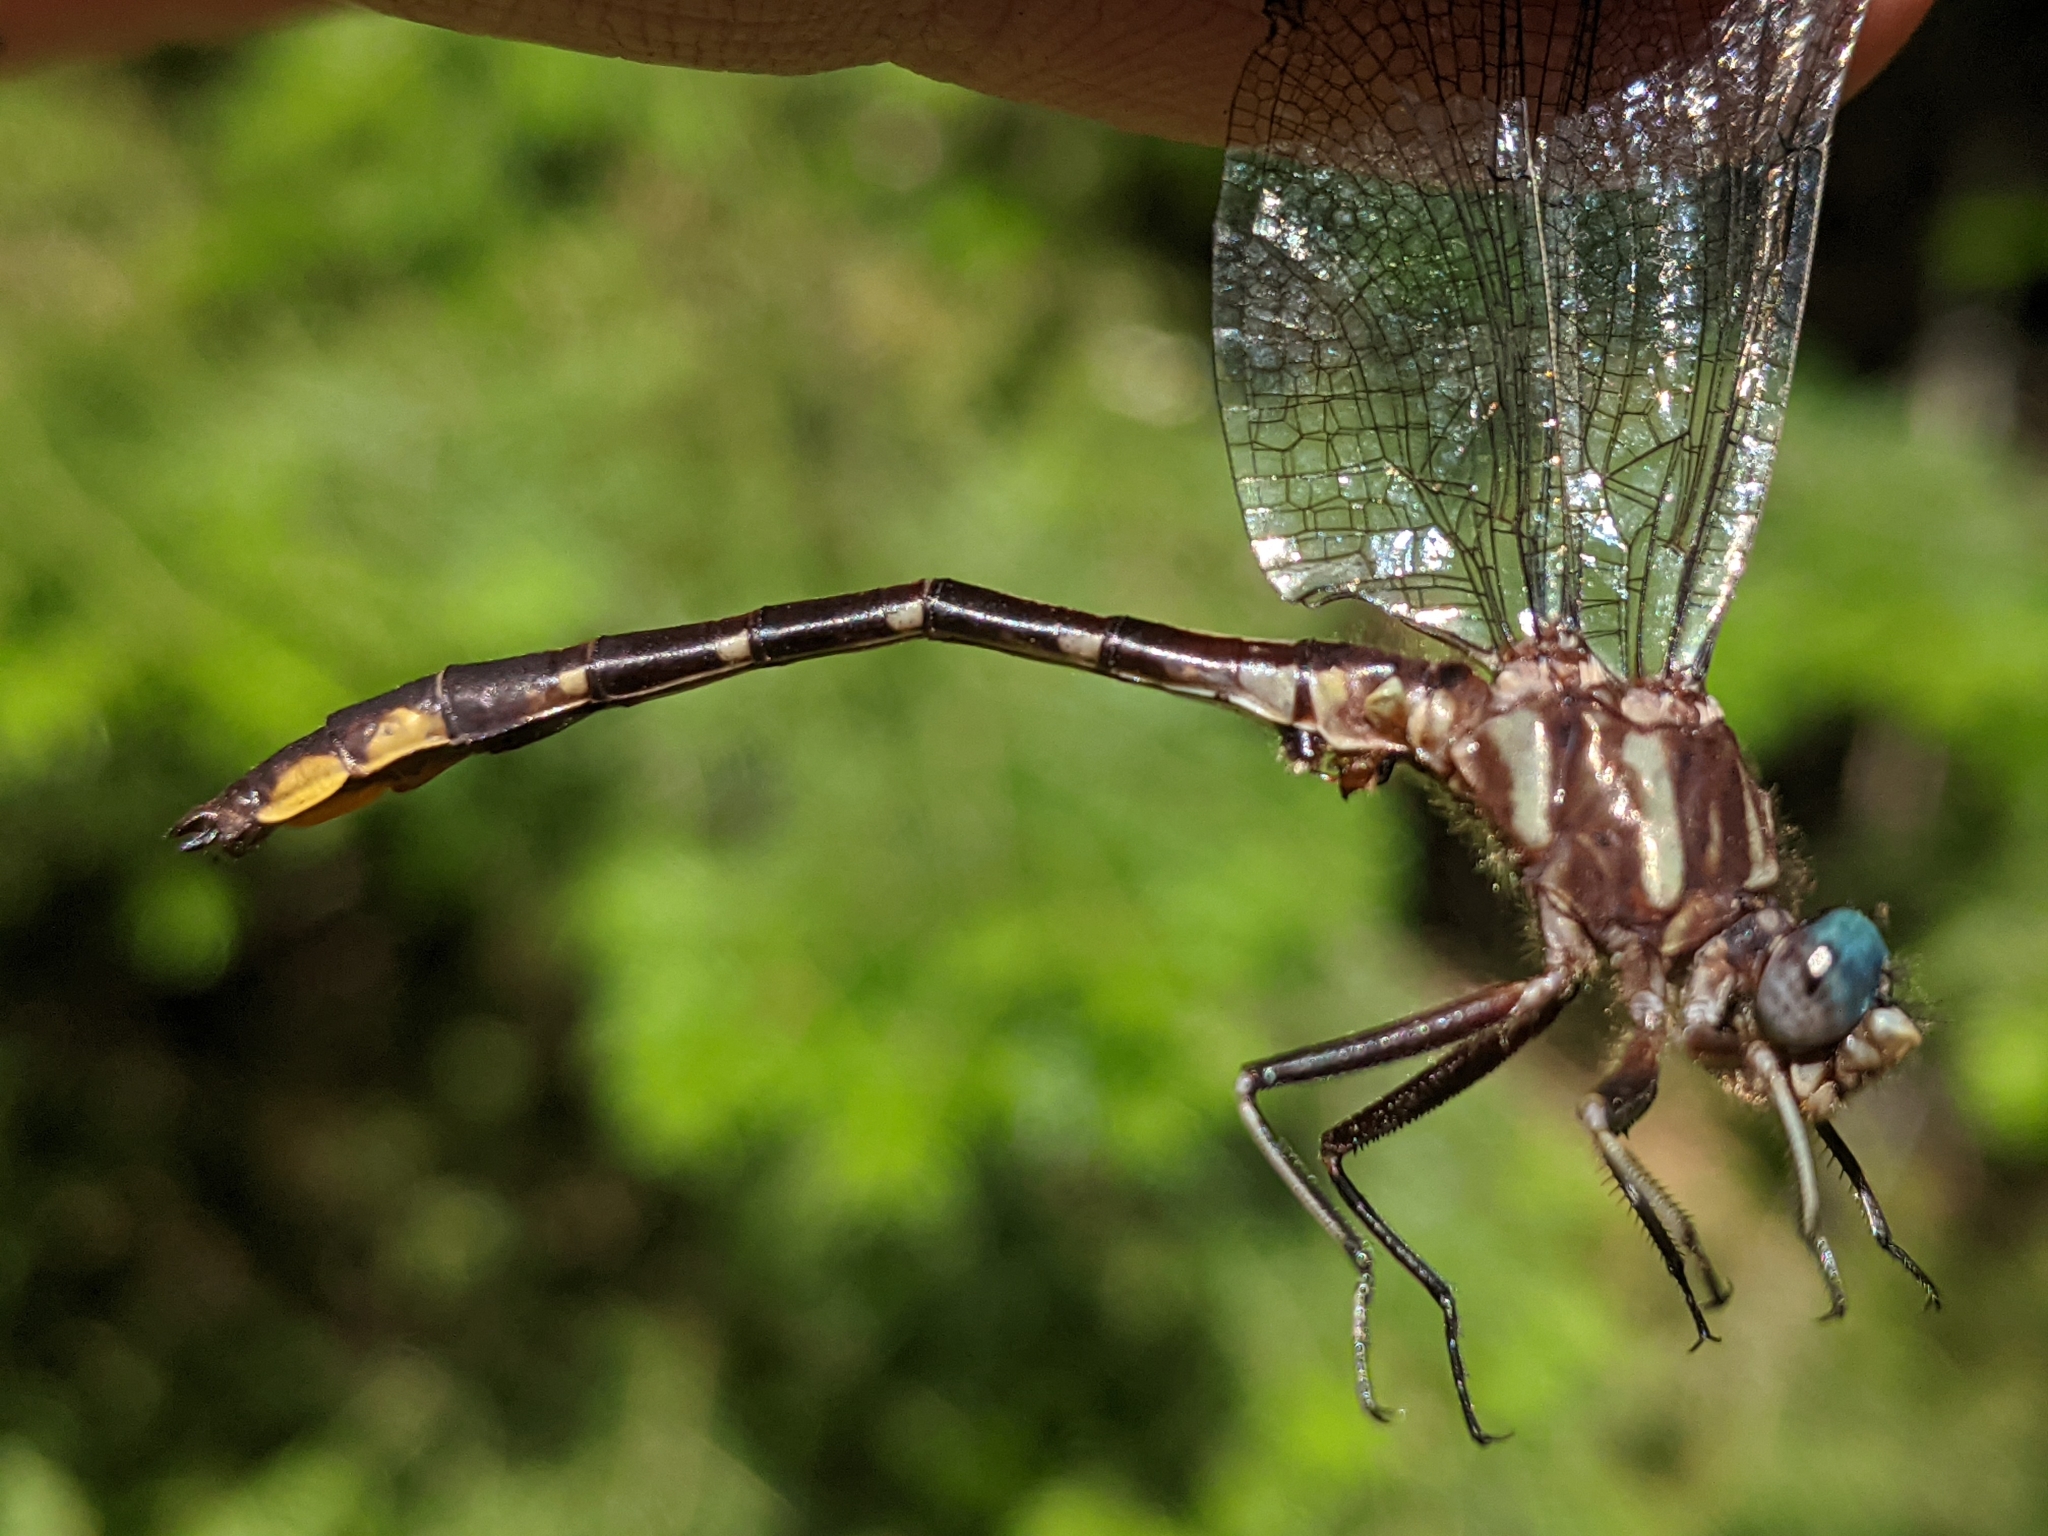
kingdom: Animalia
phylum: Arthropoda
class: Insecta
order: Odonata
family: Gomphidae
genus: Phanogomphus
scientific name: Phanogomphus exilis
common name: Lancet clubtail
